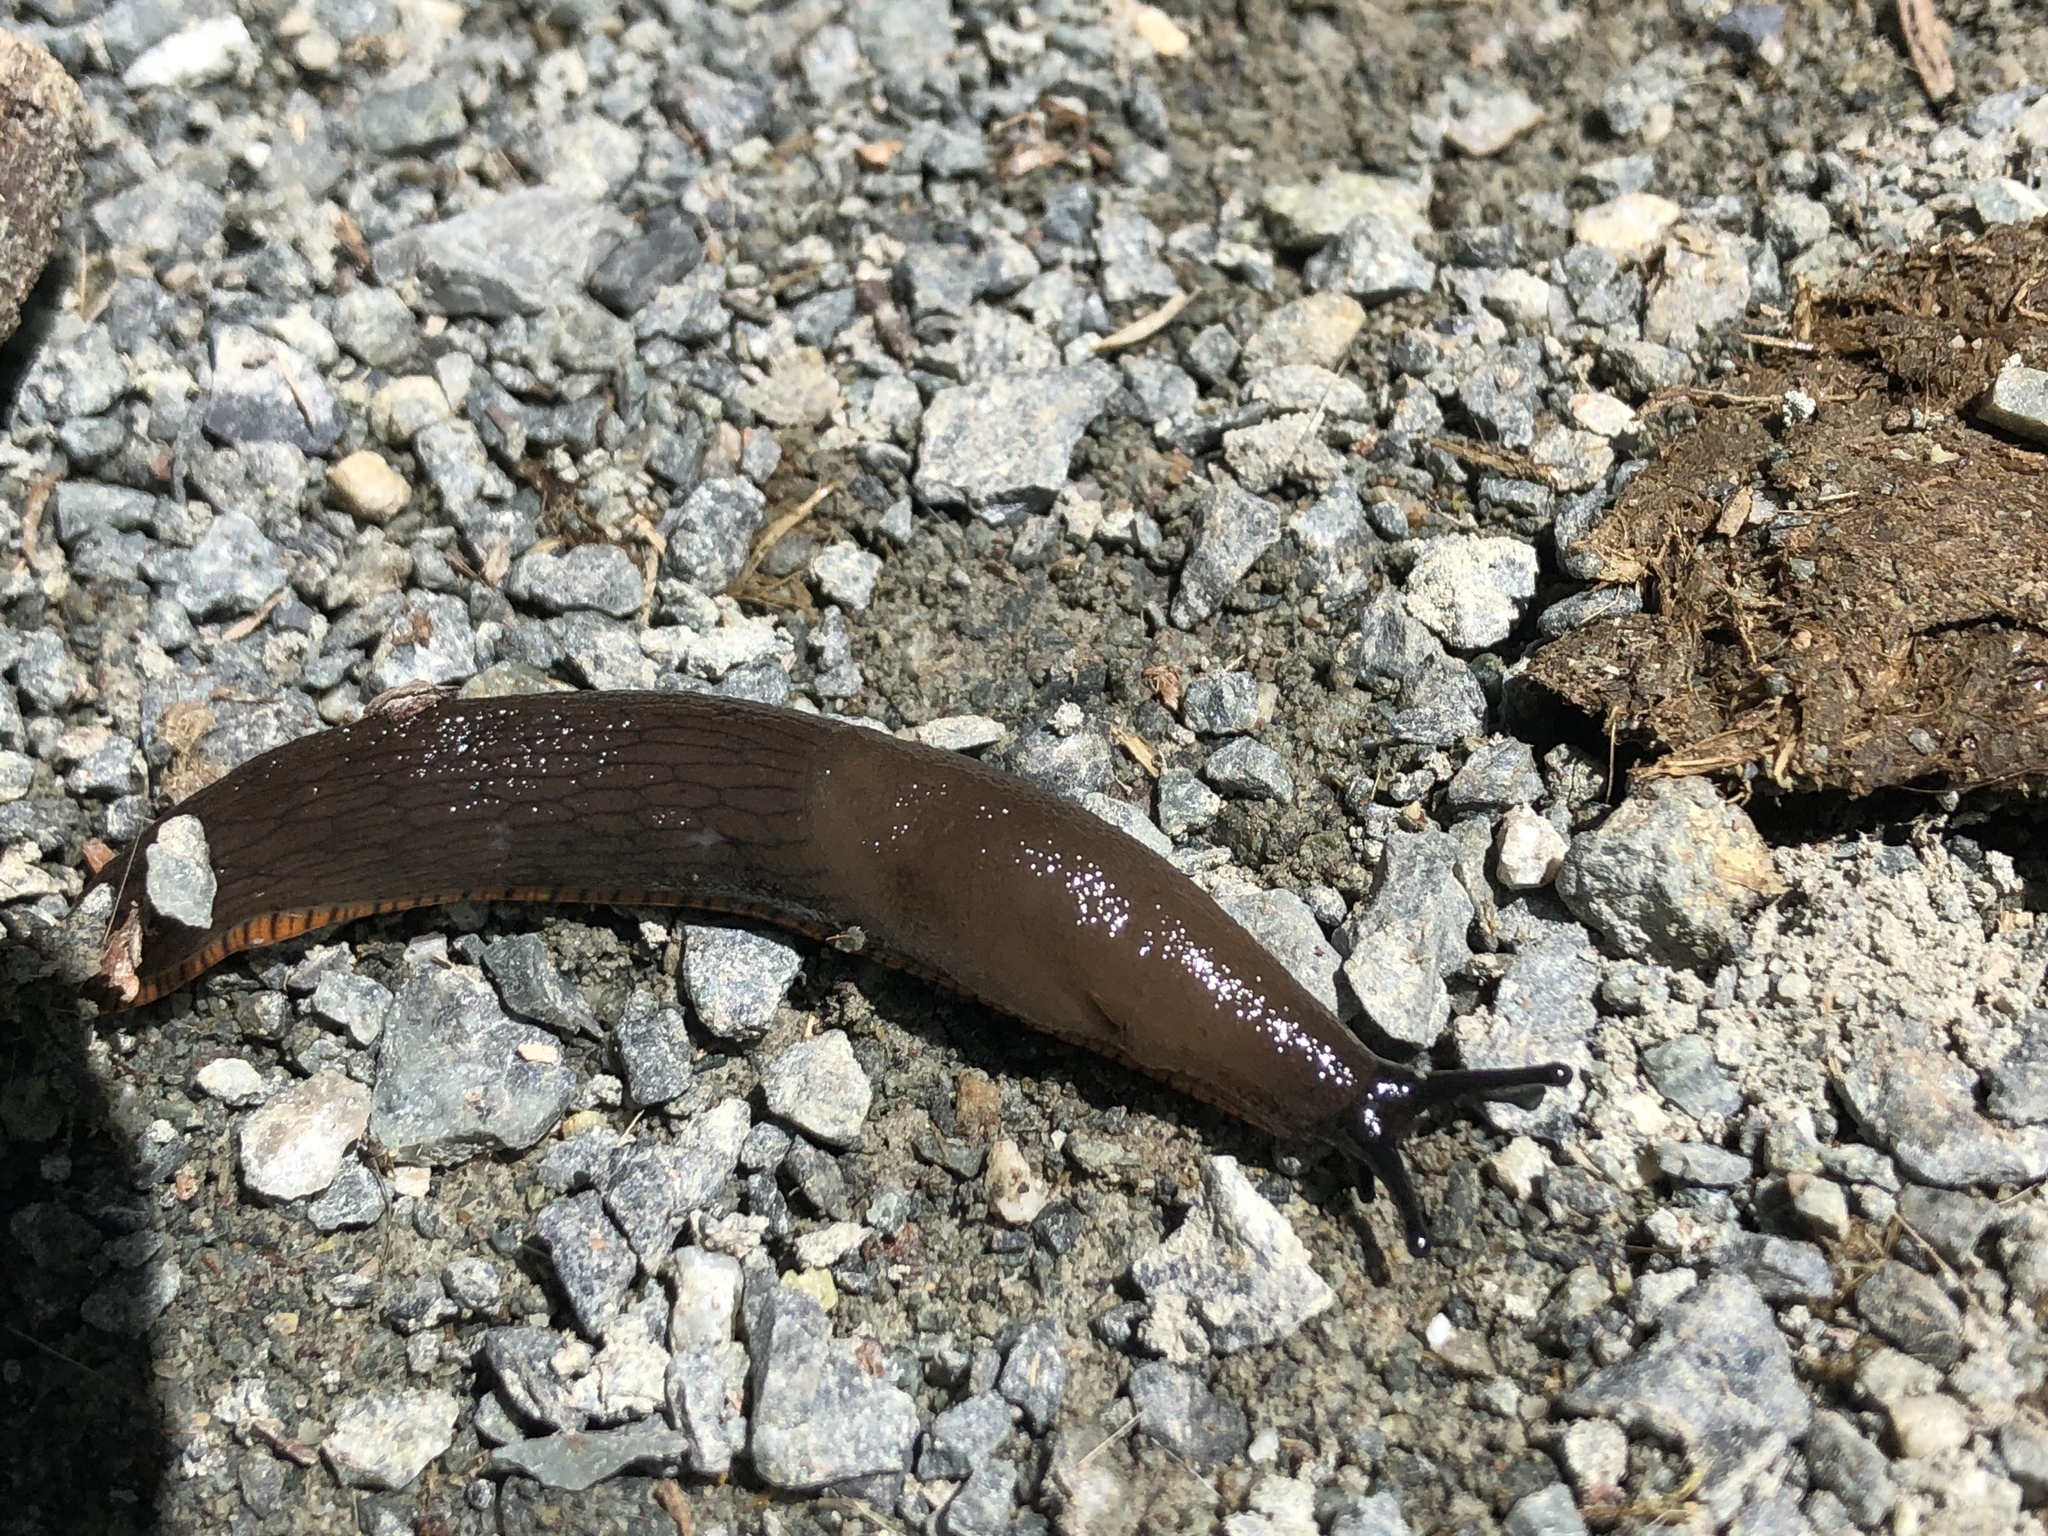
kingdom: Animalia
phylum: Mollusca
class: Gastropoda
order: Stylommatophora
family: Arionidae
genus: Arion
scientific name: Arion rufus
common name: Chocolate arion
